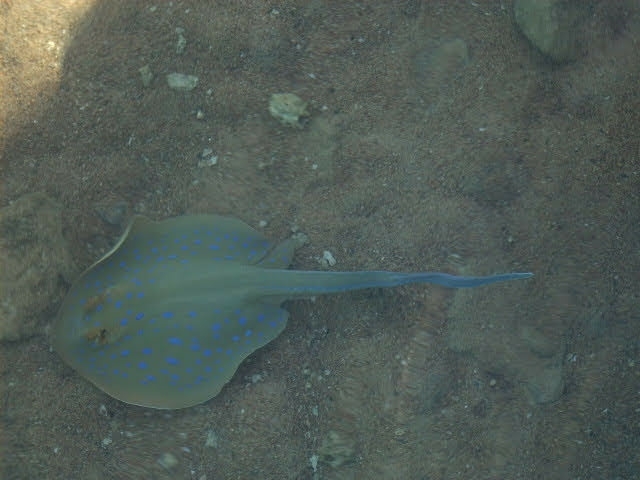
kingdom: Animalia
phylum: Chordata
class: Elasmobranchii
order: Myliobatiformes
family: Dasyatidae
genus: Taeniura
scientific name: Taeniura lymma
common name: Bluespotted ribbontail ray
